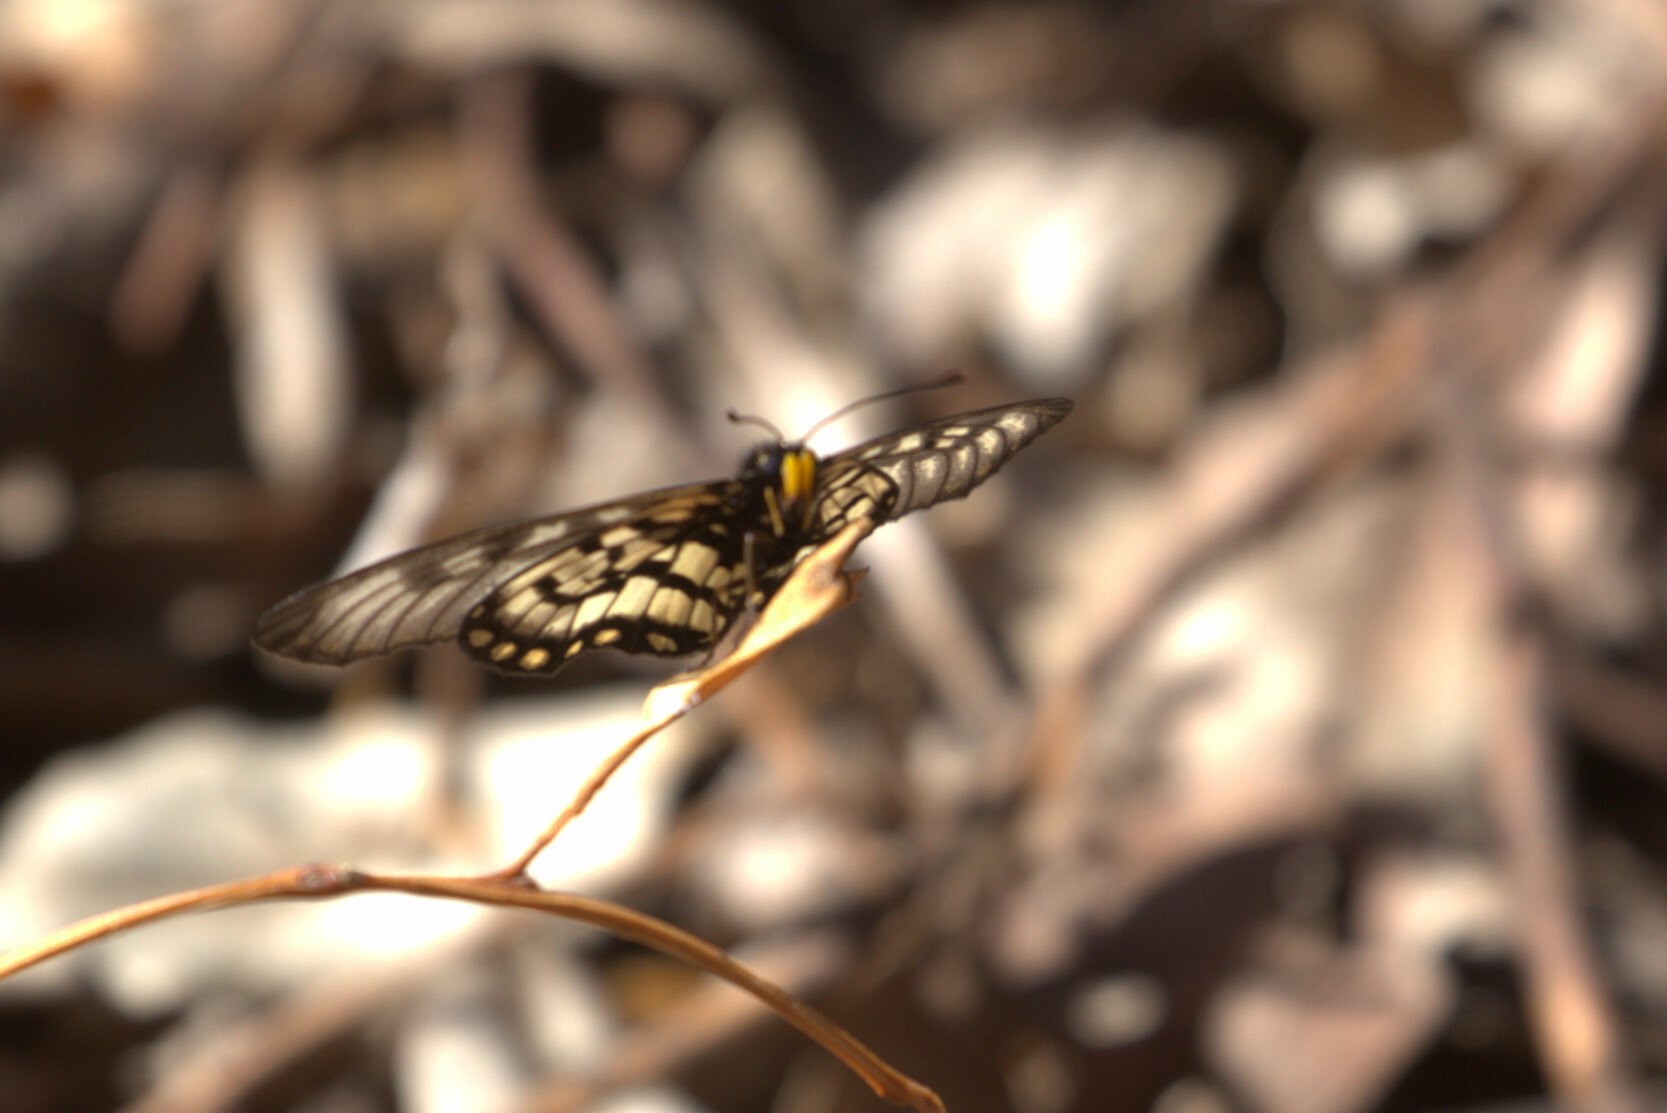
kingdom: Animalia
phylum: Arthropoda
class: Insecta
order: Lepidoptera
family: Nymphalidae
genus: Acraea
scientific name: Acraea andromacha
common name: Glasswing
